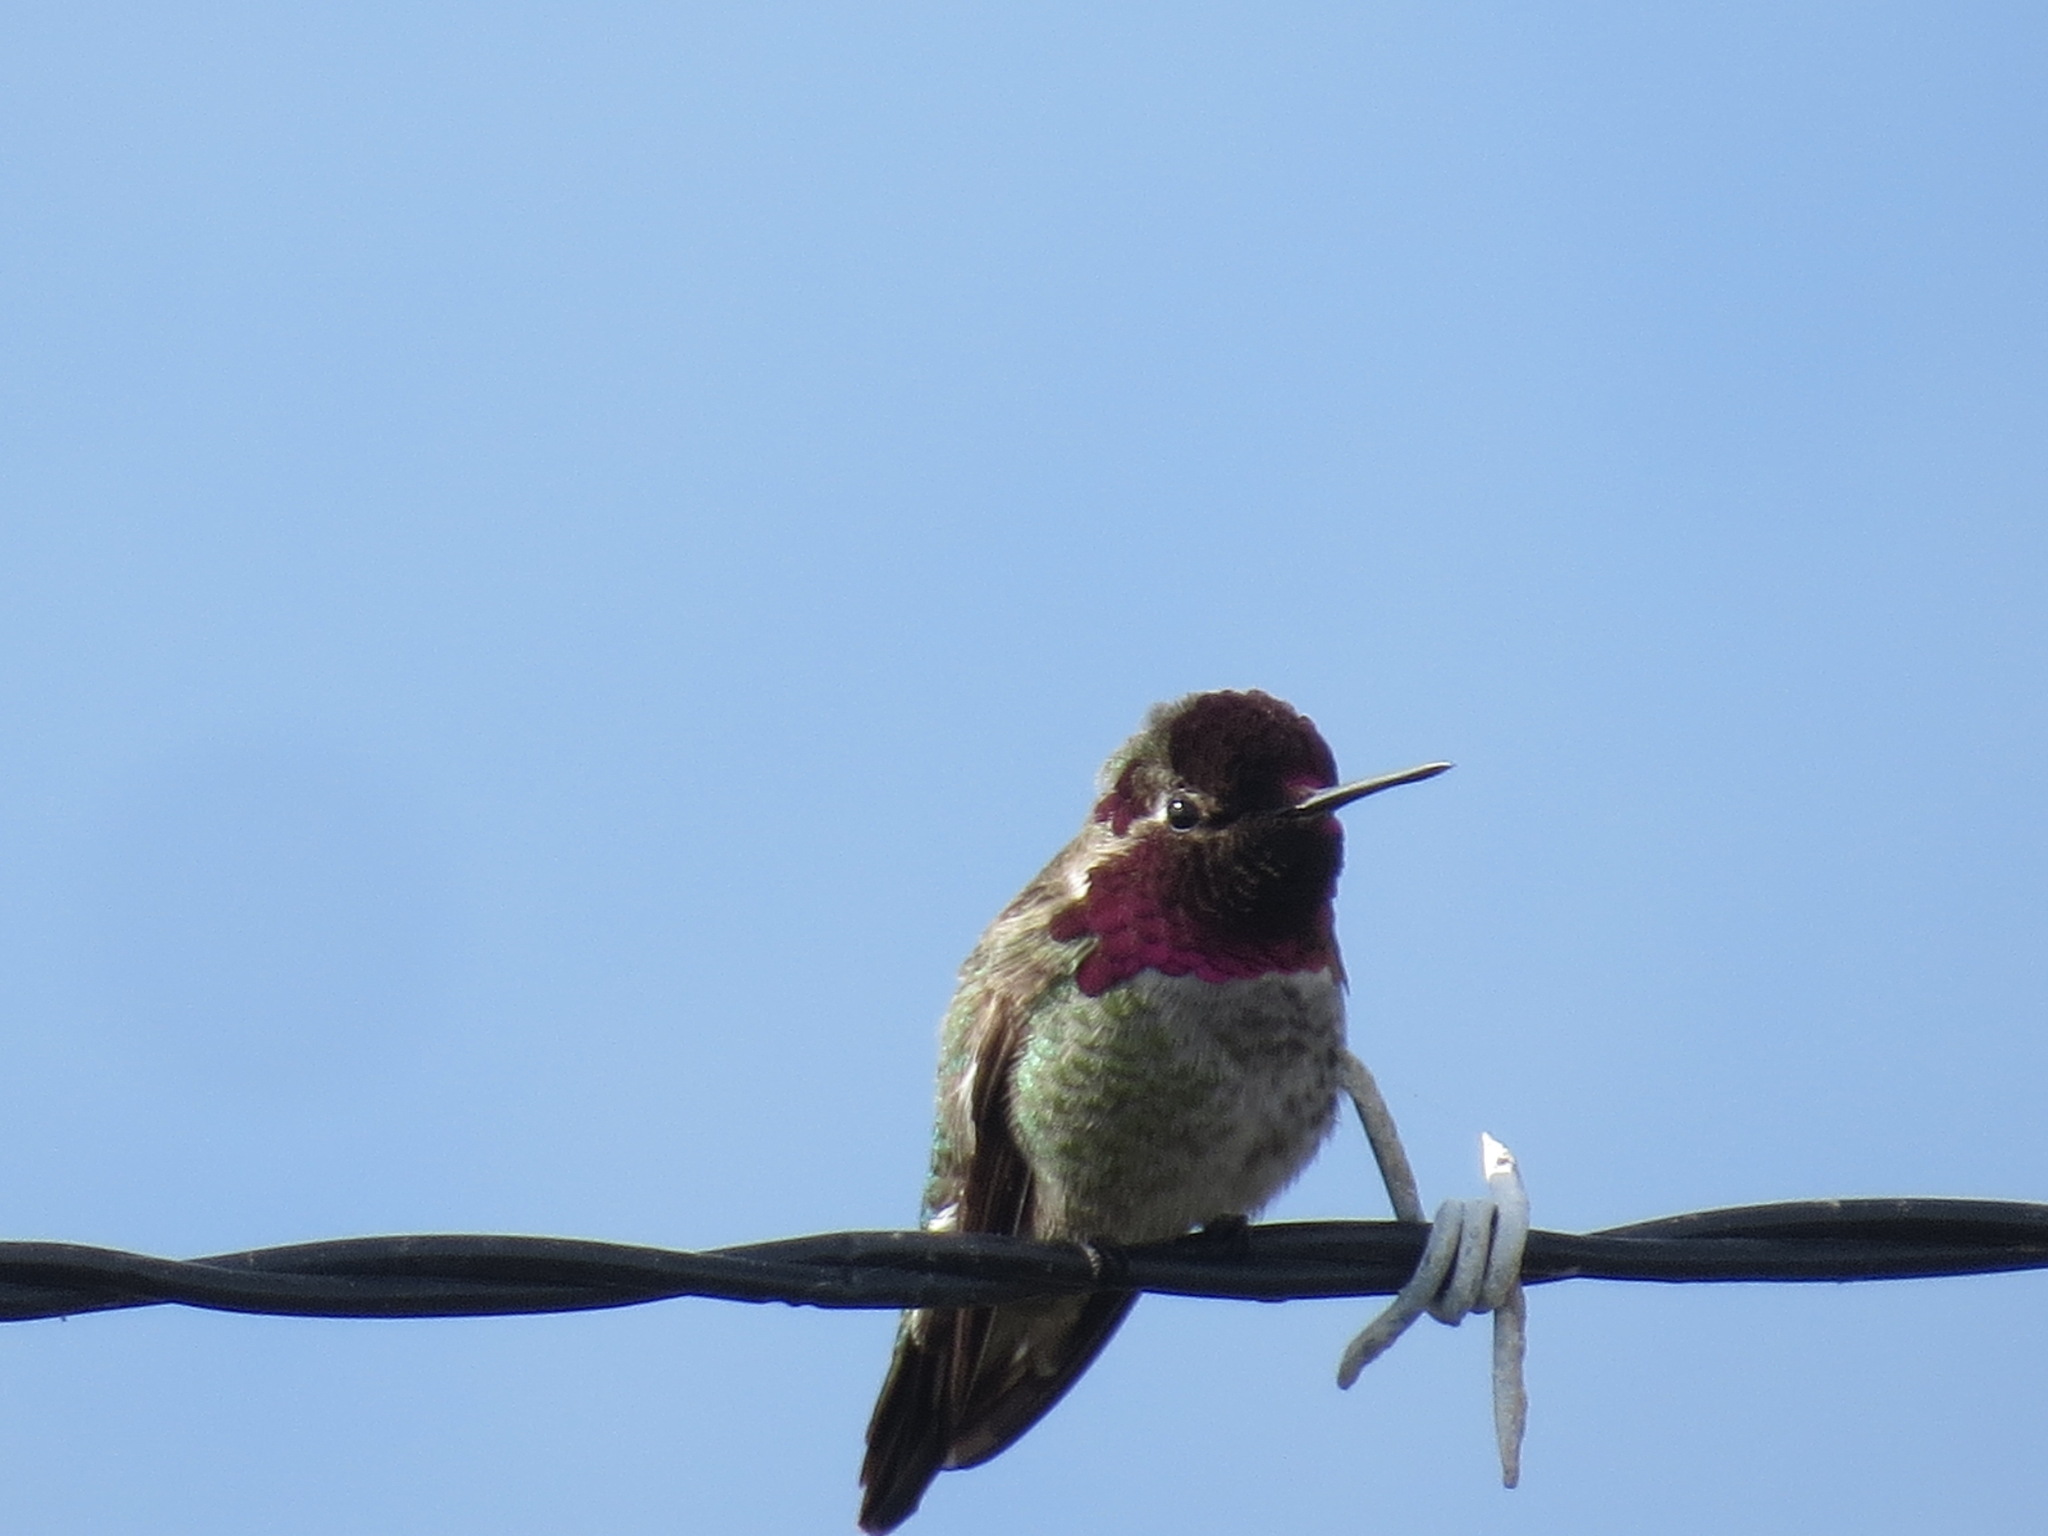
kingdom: Animalia
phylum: Chordata
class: Aves
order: Apodiformes
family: Trochilidae
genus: Calypte
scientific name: Calypte anna
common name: Anna's hummingbird
